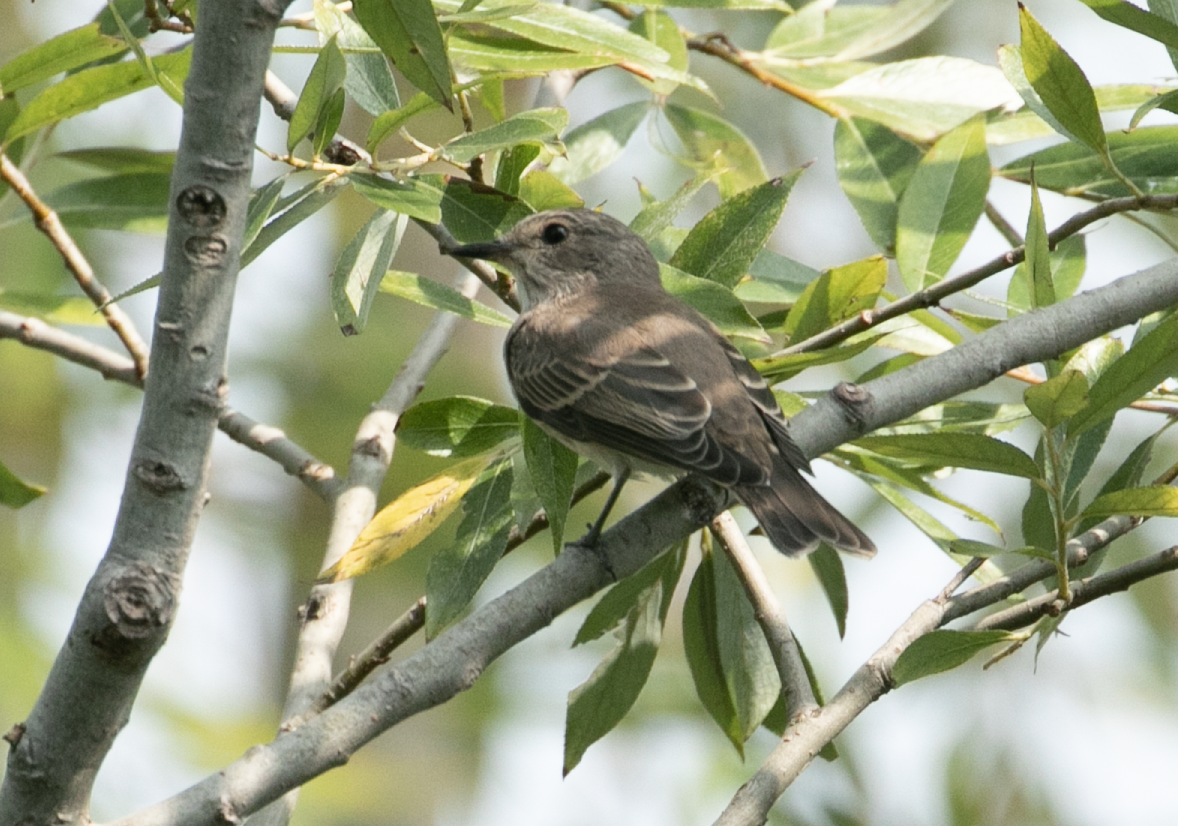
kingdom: Animalia
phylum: Chordata
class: Aves
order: Passeriformes
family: Muscicapidae
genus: Muscicapa
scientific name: Muscicapa striata
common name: Spotted flycatcher
